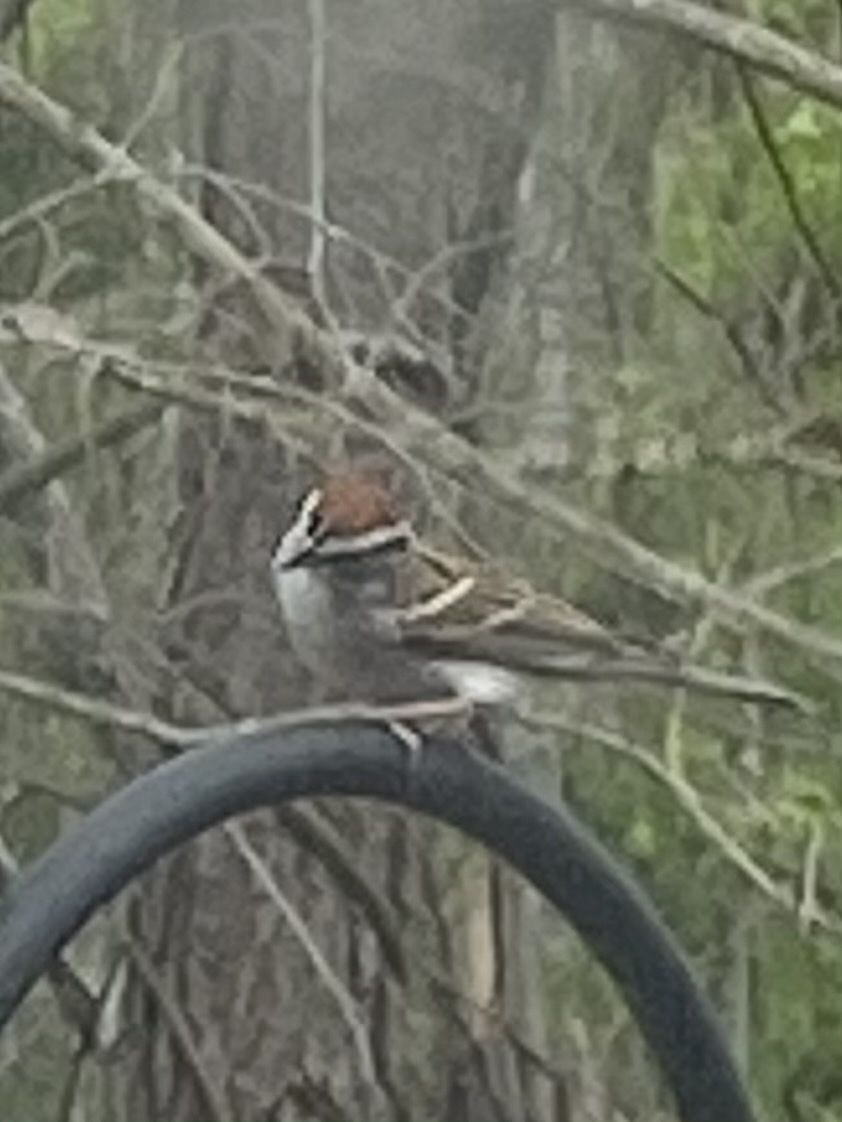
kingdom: Animalia
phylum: Chordata
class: Aves
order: Passeriformes
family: Passerellidae
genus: Spizella
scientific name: Spizella passerina
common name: Chipping sparrow
